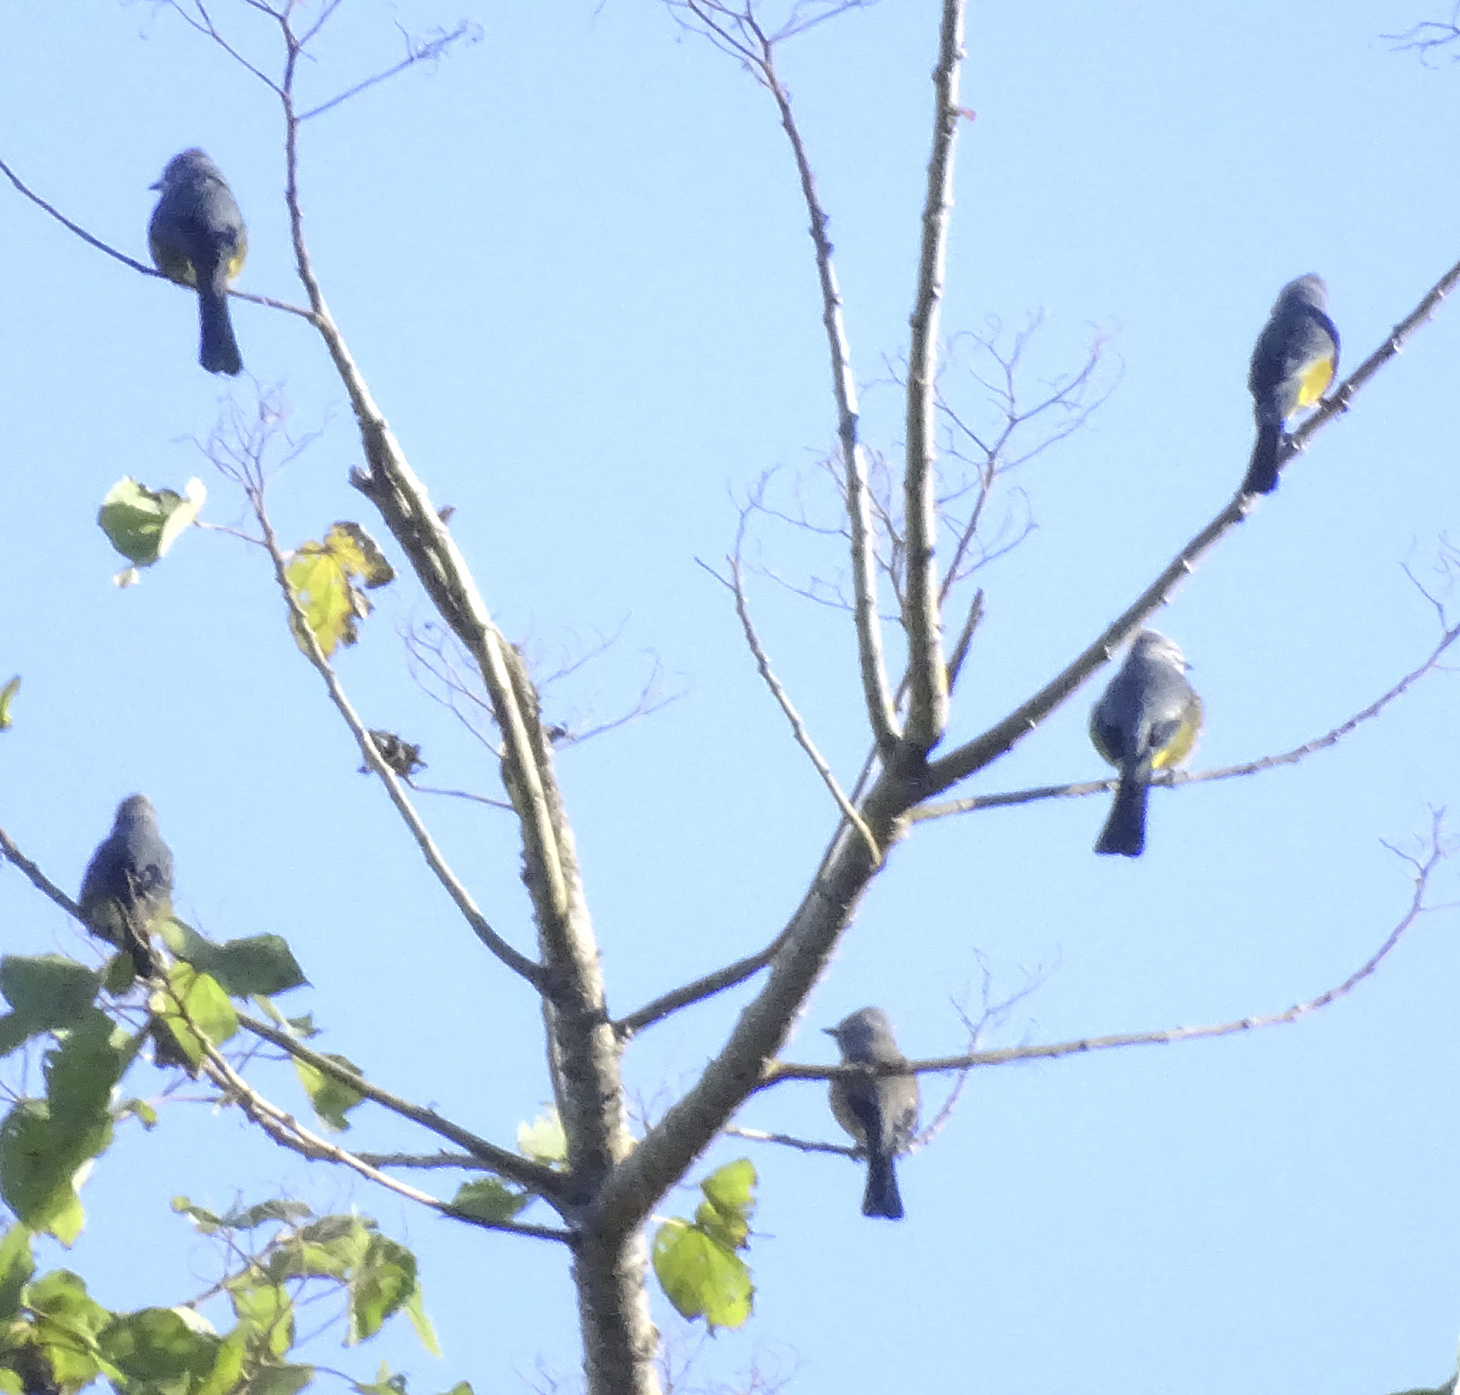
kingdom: Animalia
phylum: Chordata
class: Aves
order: Passeriformes
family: Ptilogonatidae
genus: Ptilogonys
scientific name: Ptilogonys cinereus
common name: Gray silky-flycatcher
